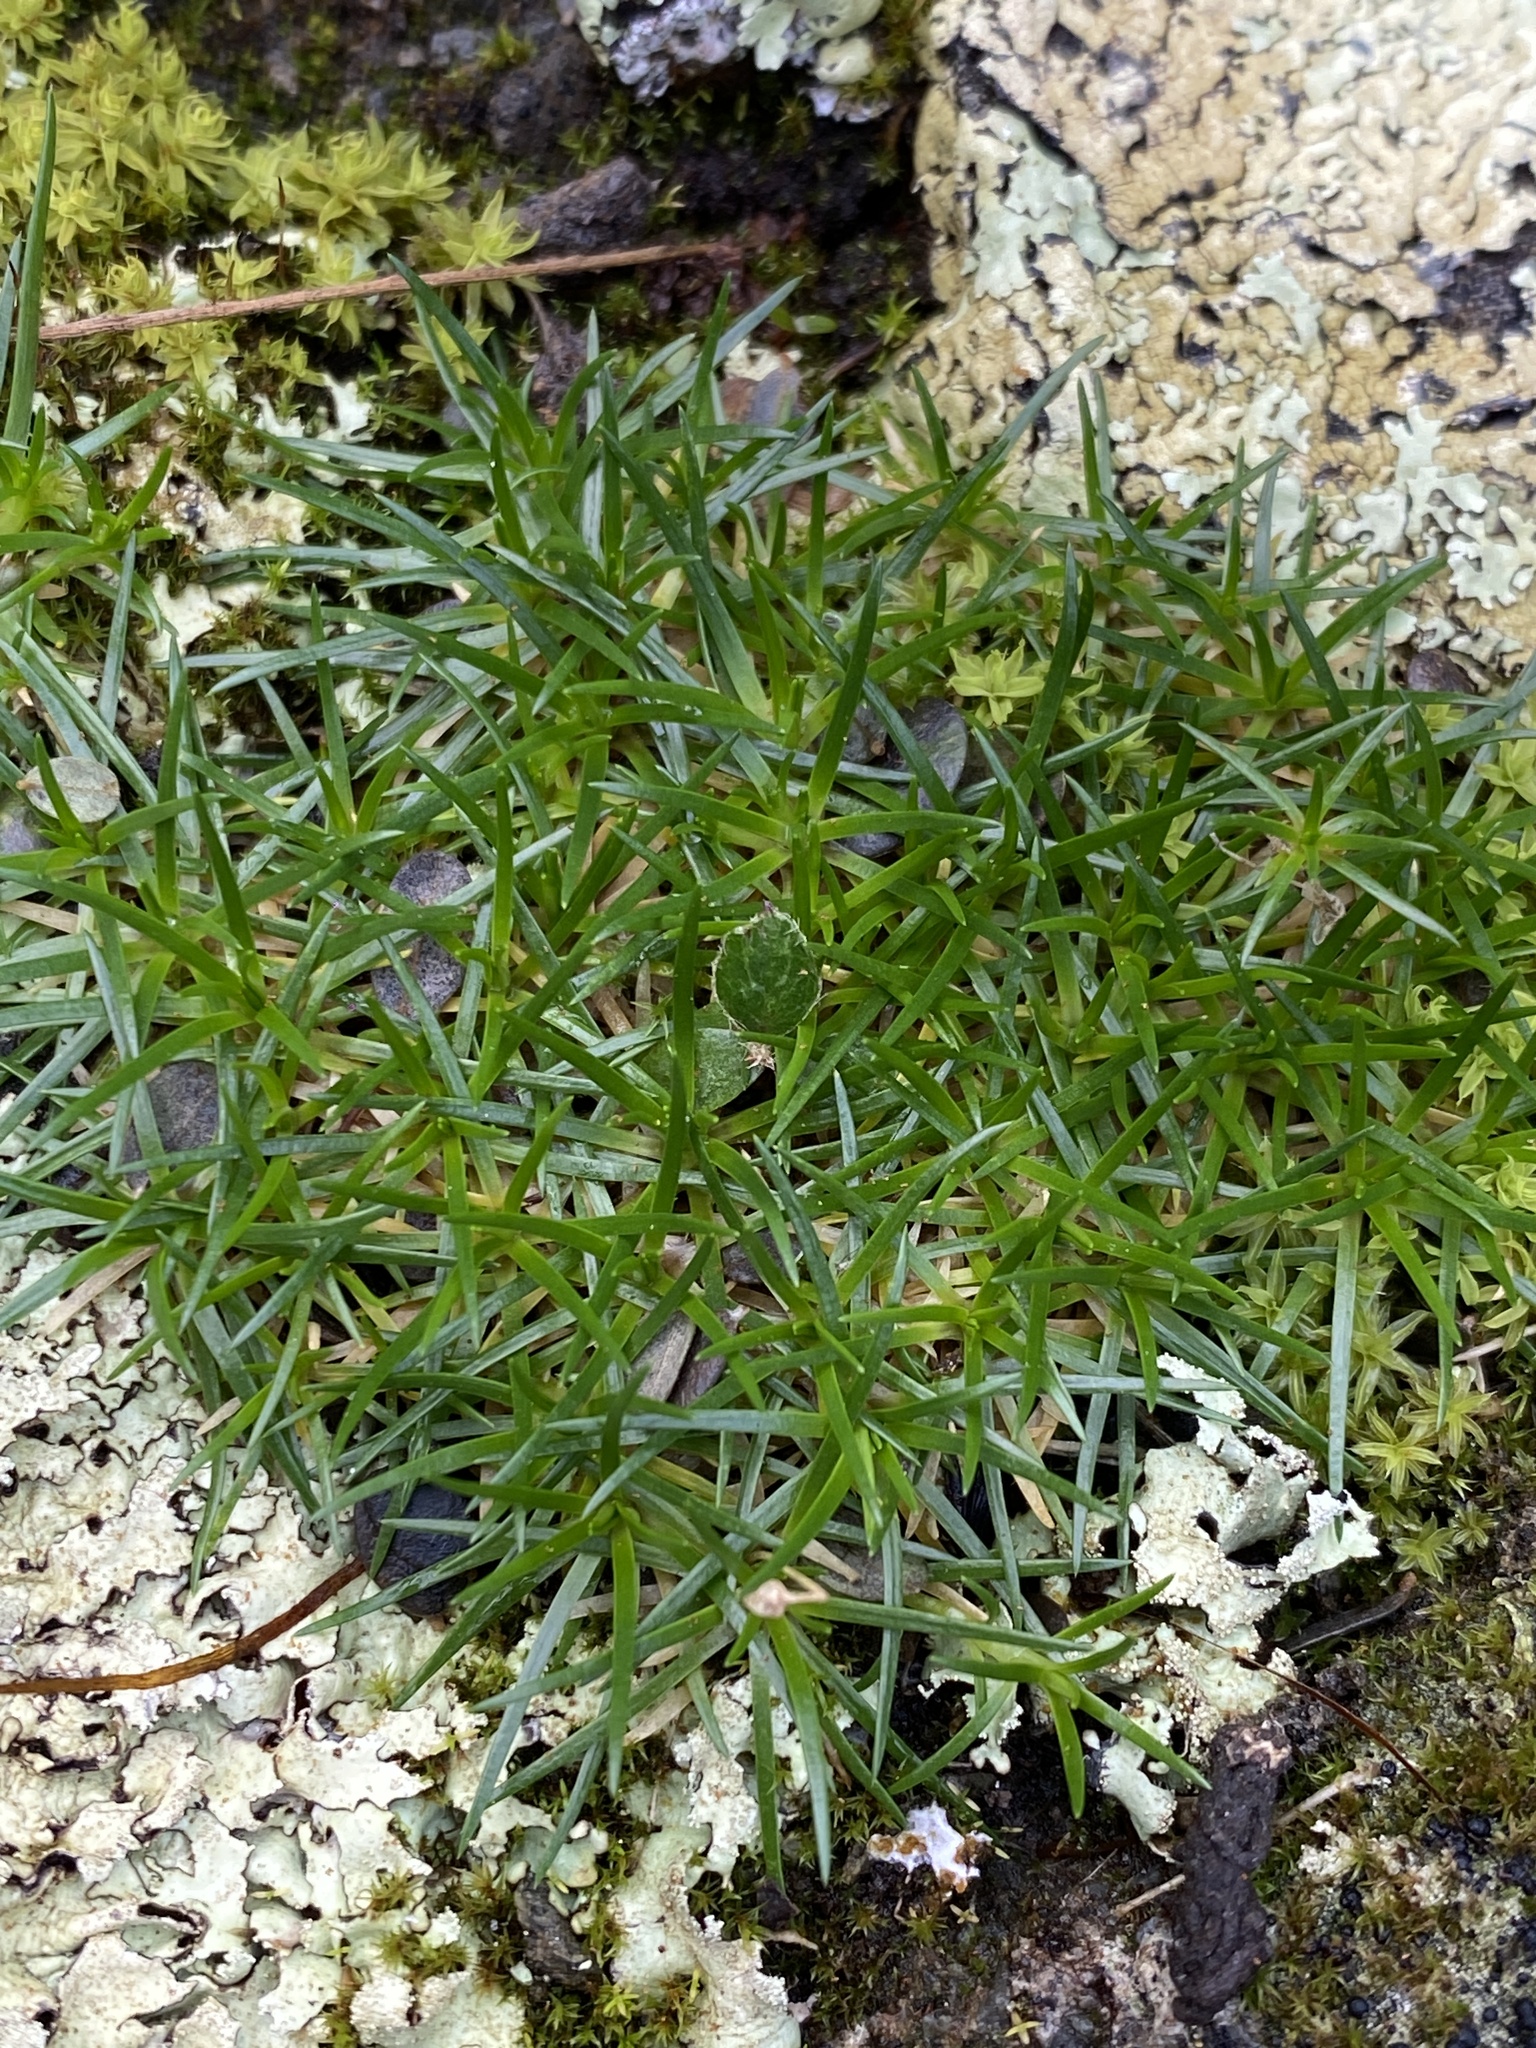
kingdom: Plantae
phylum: Tracheophyta
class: Magnoliopsida
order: Caryophyllales
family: Caryophyllaceae
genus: Sagina
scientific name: Sagina procumbens
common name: Procumbent pearlwort
